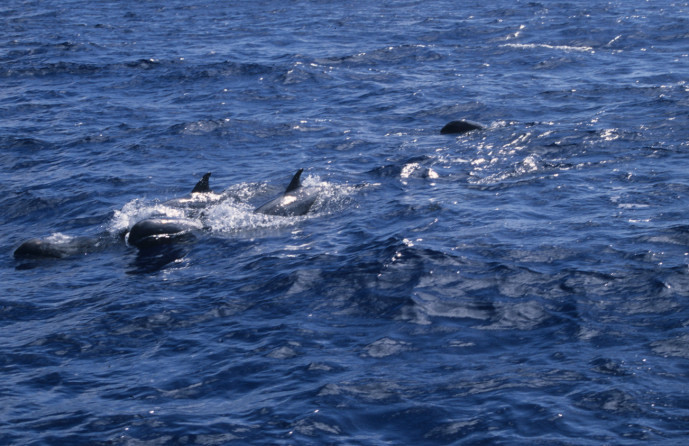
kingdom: Animalia
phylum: Chordata
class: Mammalia
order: Cetacea
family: Delphinidae
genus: Feresa
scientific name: Feresa attenuata
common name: Pygmy killer whale
